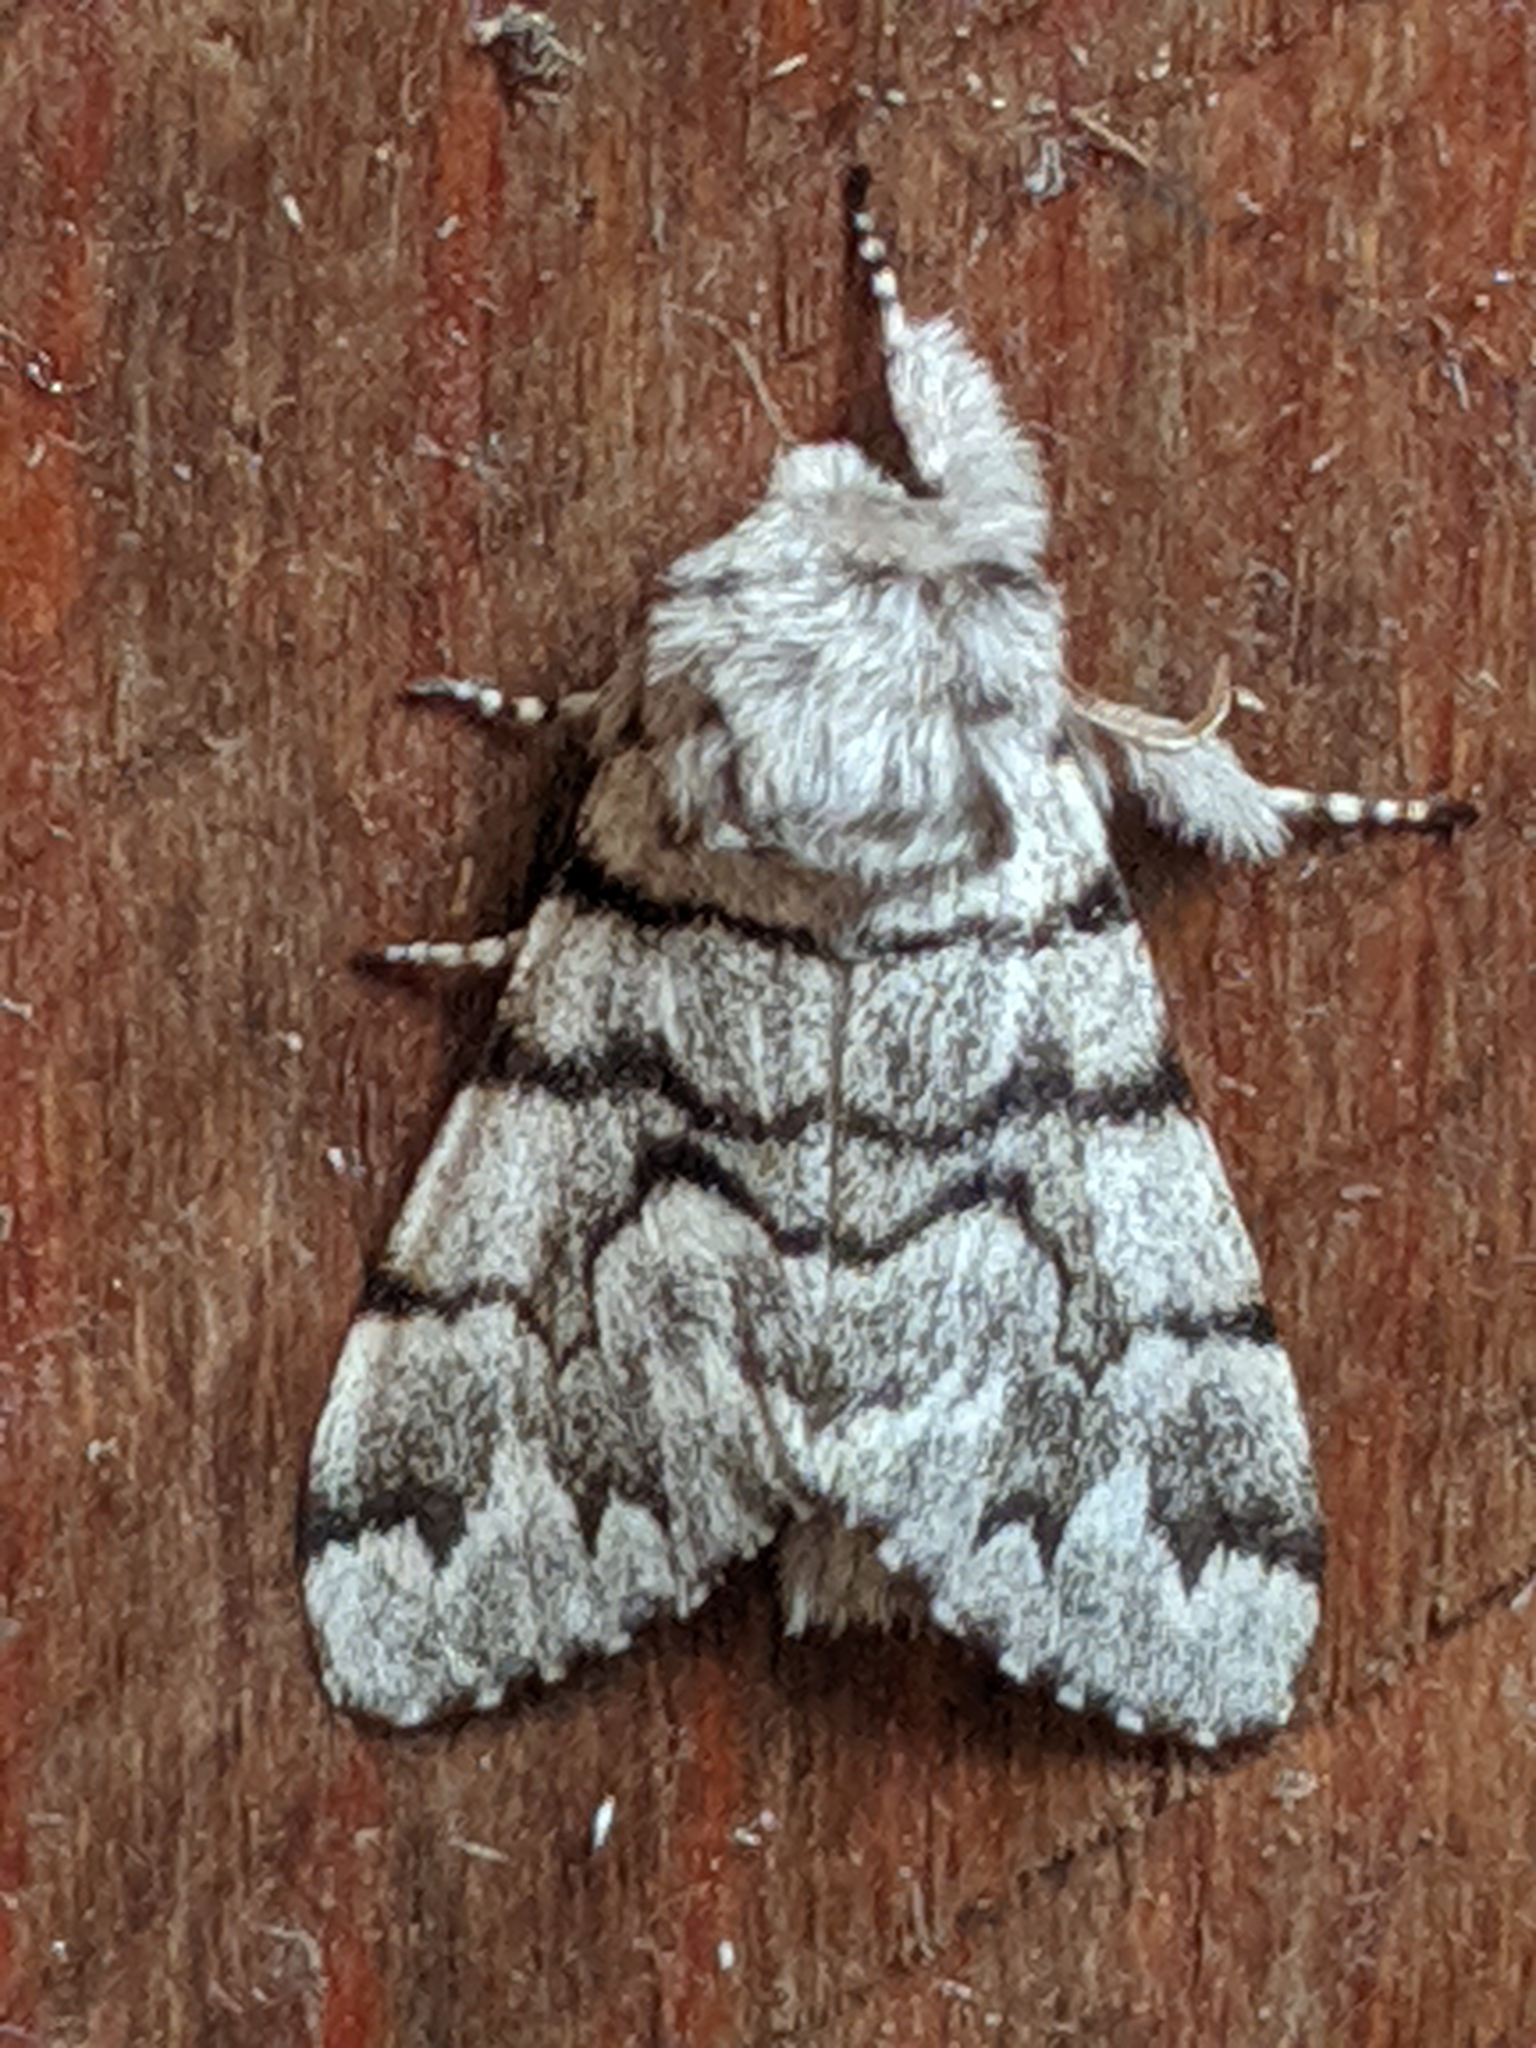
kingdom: Animalia
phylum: Arthropoda
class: Insecta
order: Lepidoptera
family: Noctuidae
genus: Panthea
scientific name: Panthea furcilla
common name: Eastern panthea moth
